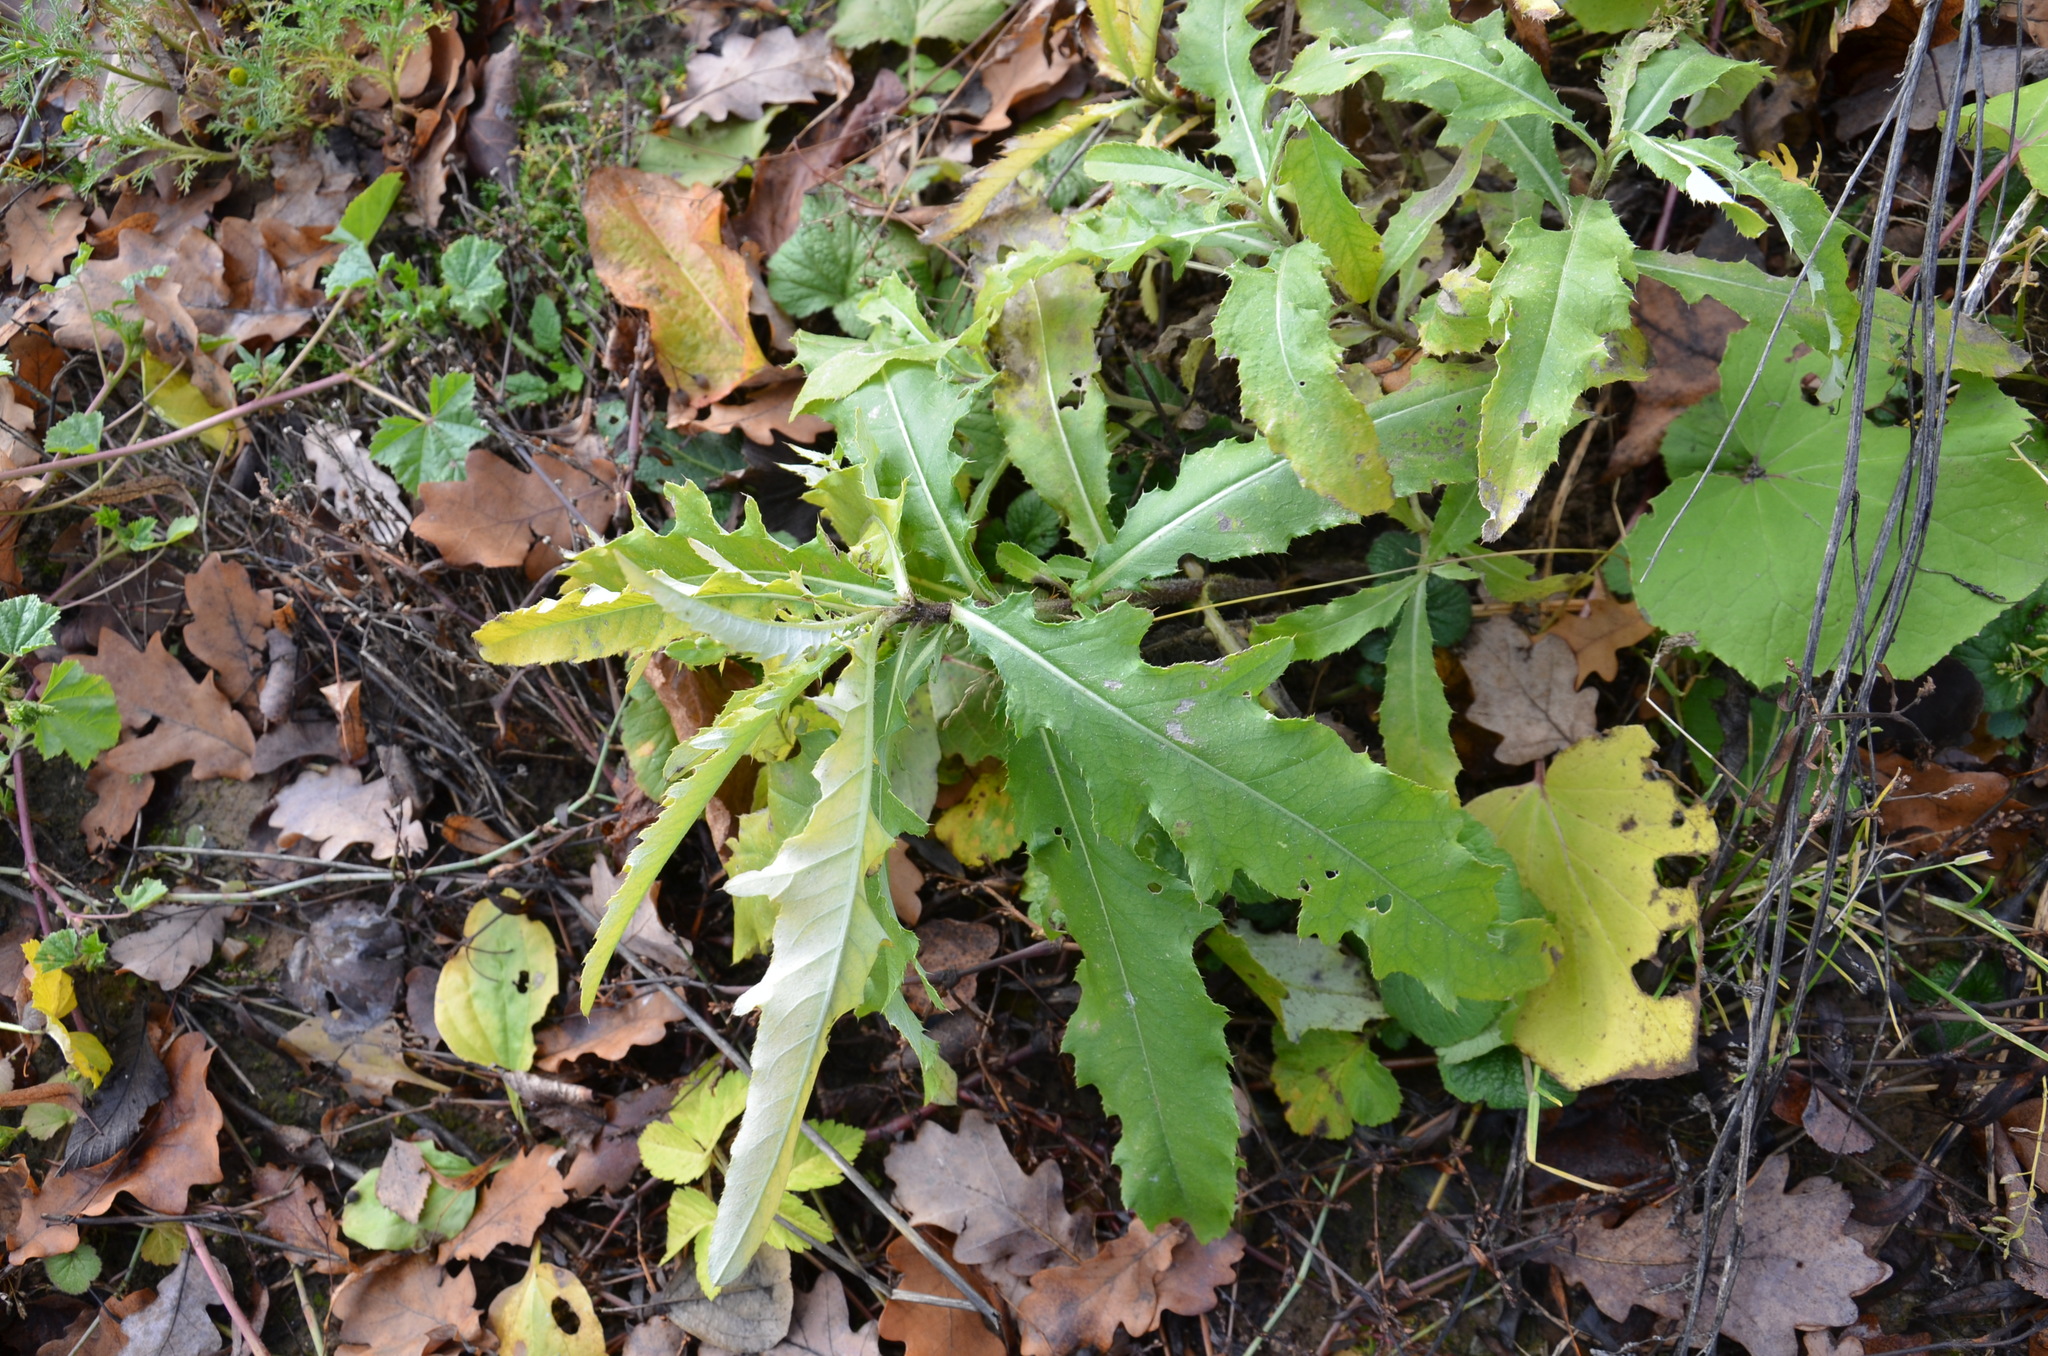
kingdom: Plantae
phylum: Tracheophyta
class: Magnoliopsida
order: Asterales
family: Asteraceae
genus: Cirsium
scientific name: Cirsium arvense
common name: Creeping thistle
